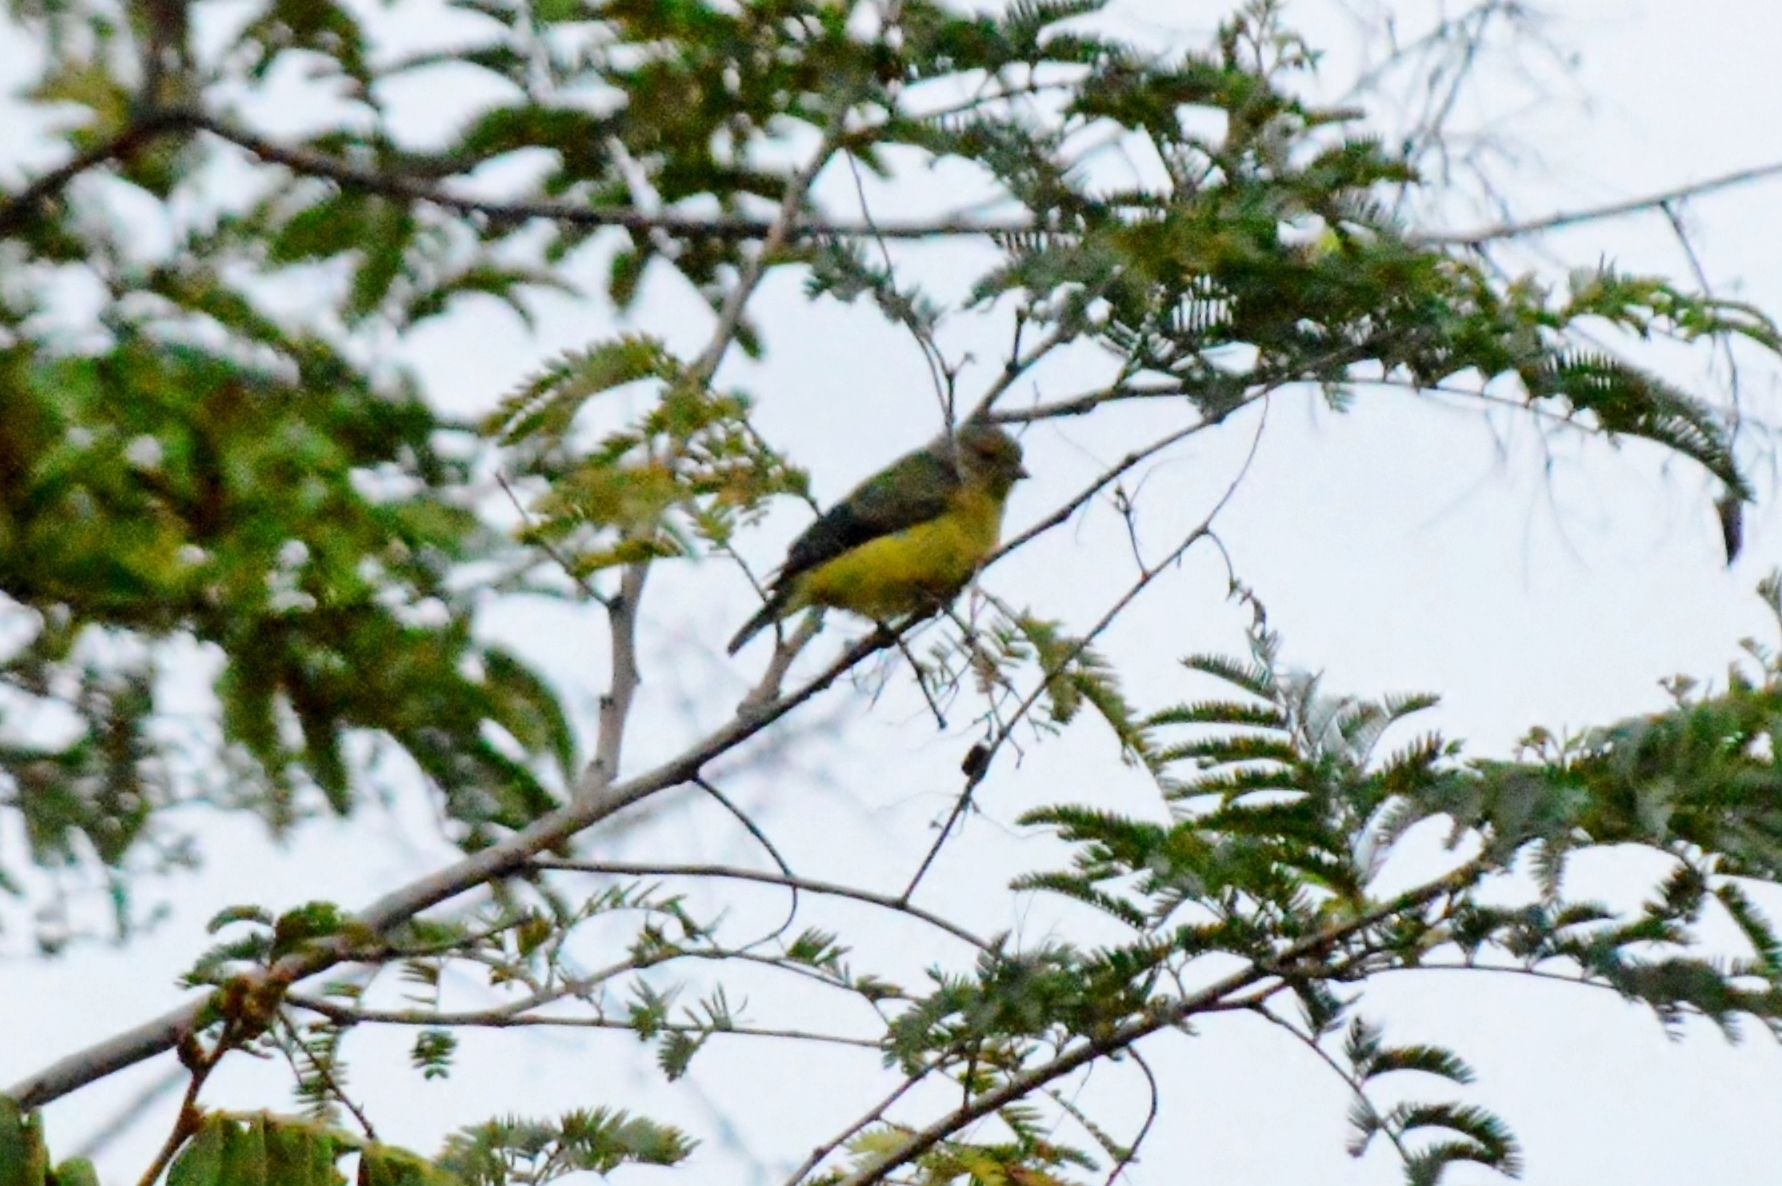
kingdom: Animalia
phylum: Chordata
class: Aves
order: Passeriformes
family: Fringillidae
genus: Euphonia
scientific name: Euphonia chlorotica
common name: Purple-throated euphonia
